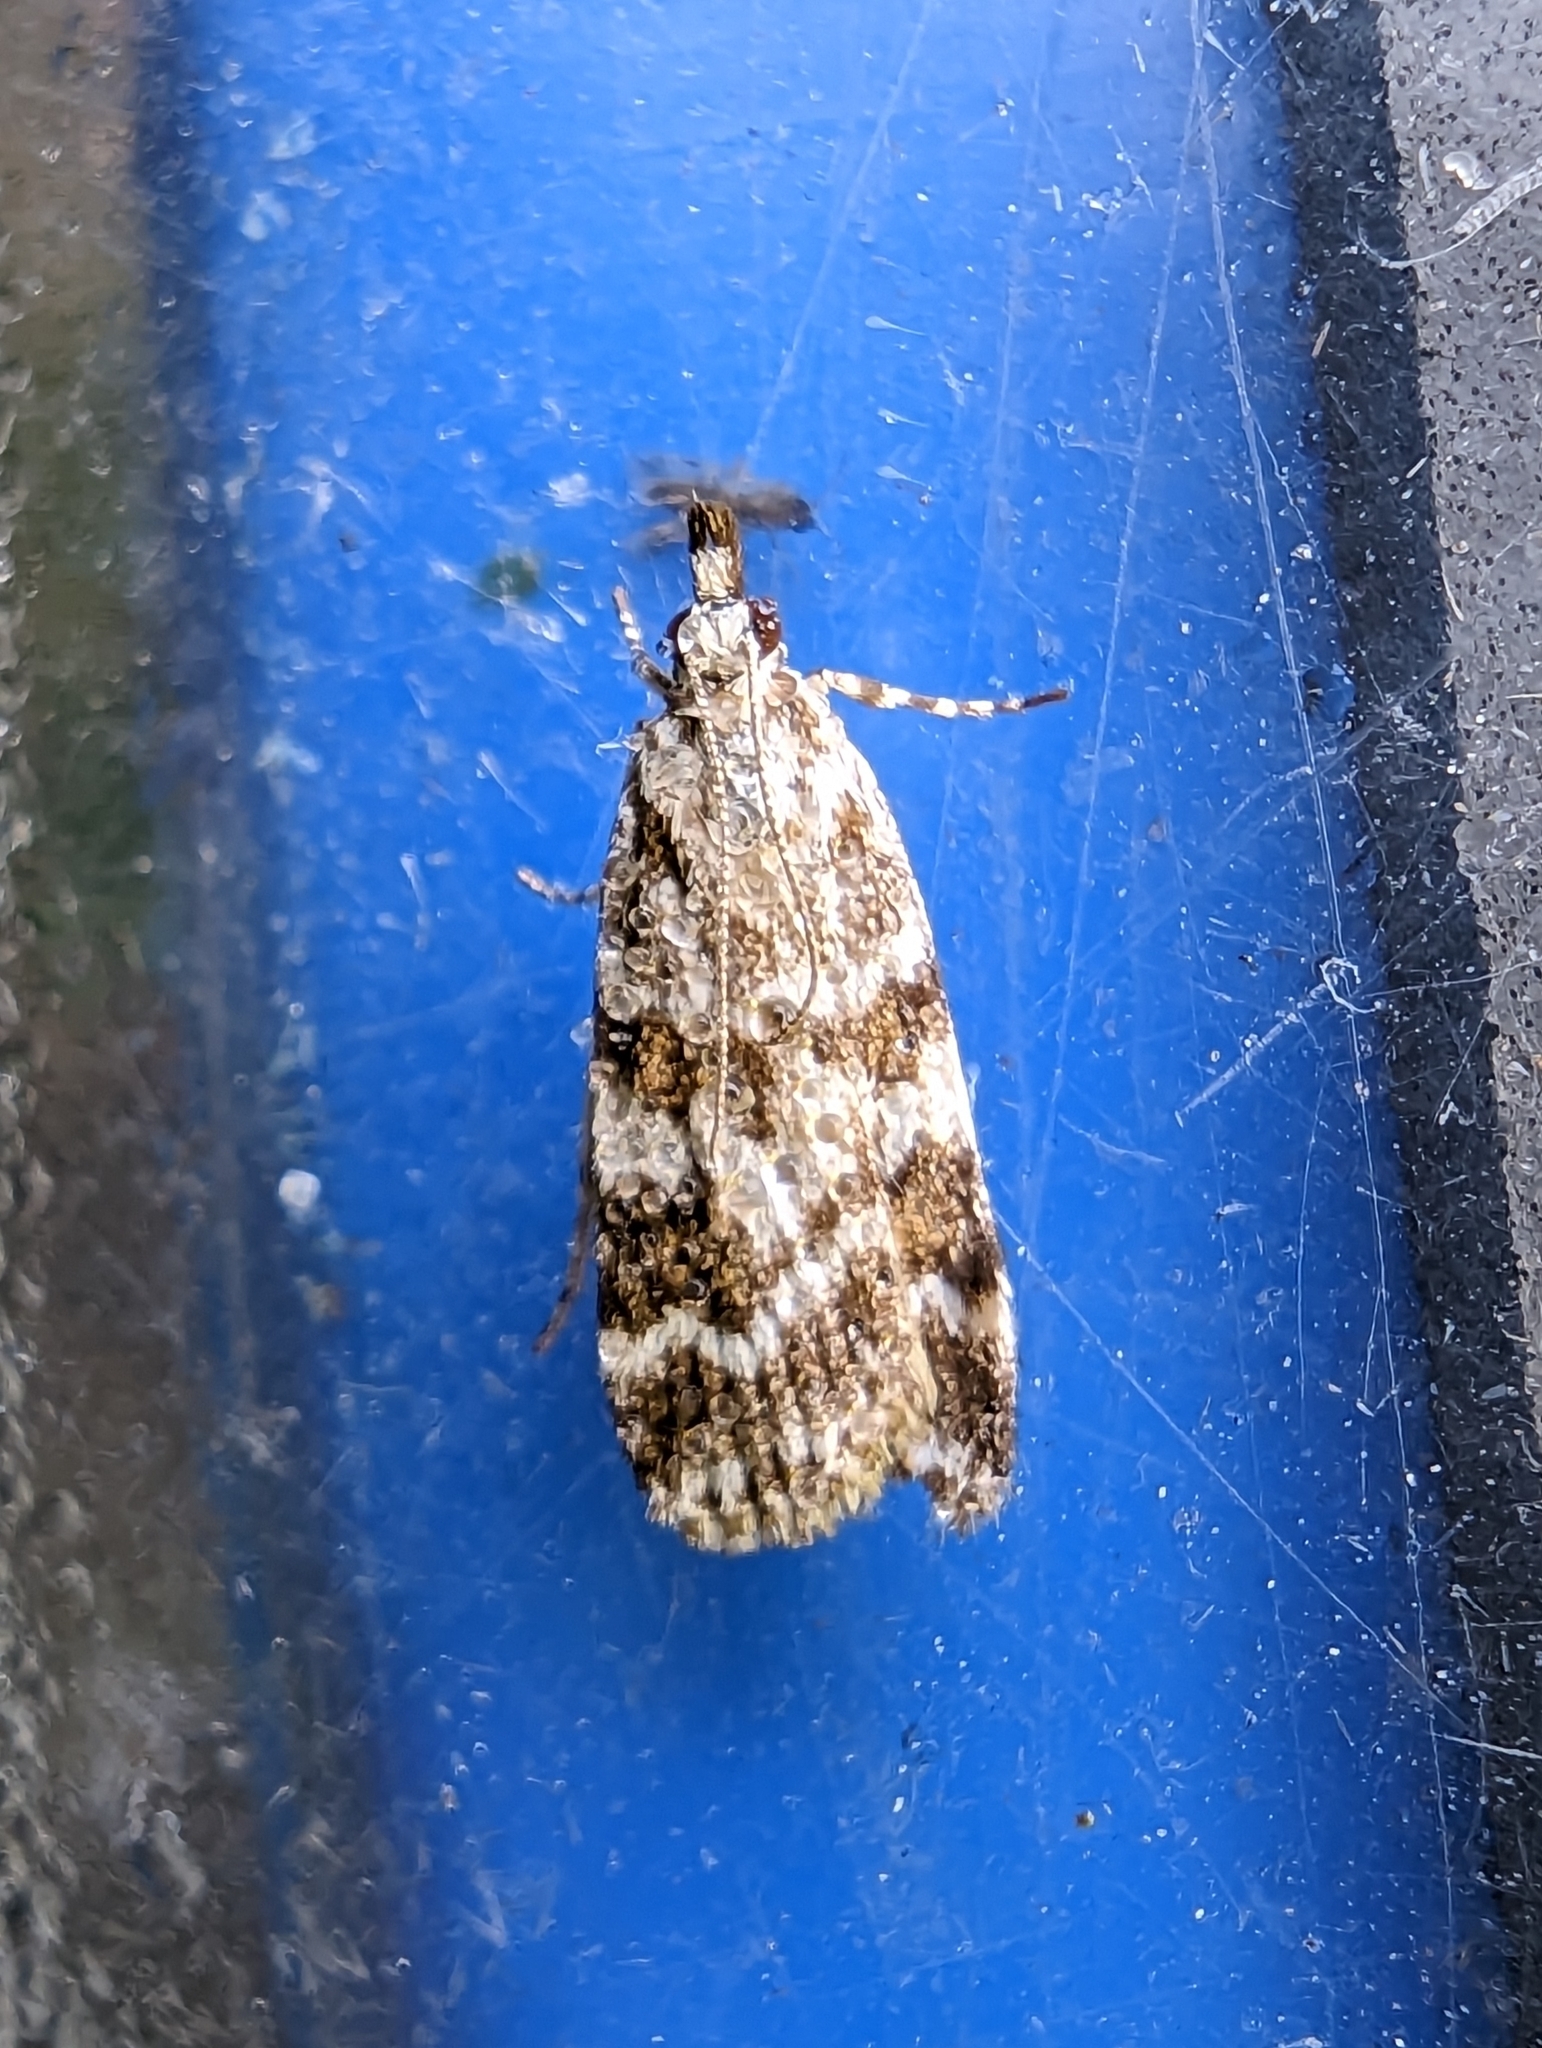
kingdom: Animalia
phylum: Arthropoda
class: Insecta
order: Lepidoptera
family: Crambidae
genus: Scoparia
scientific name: Scoparia pyralella
